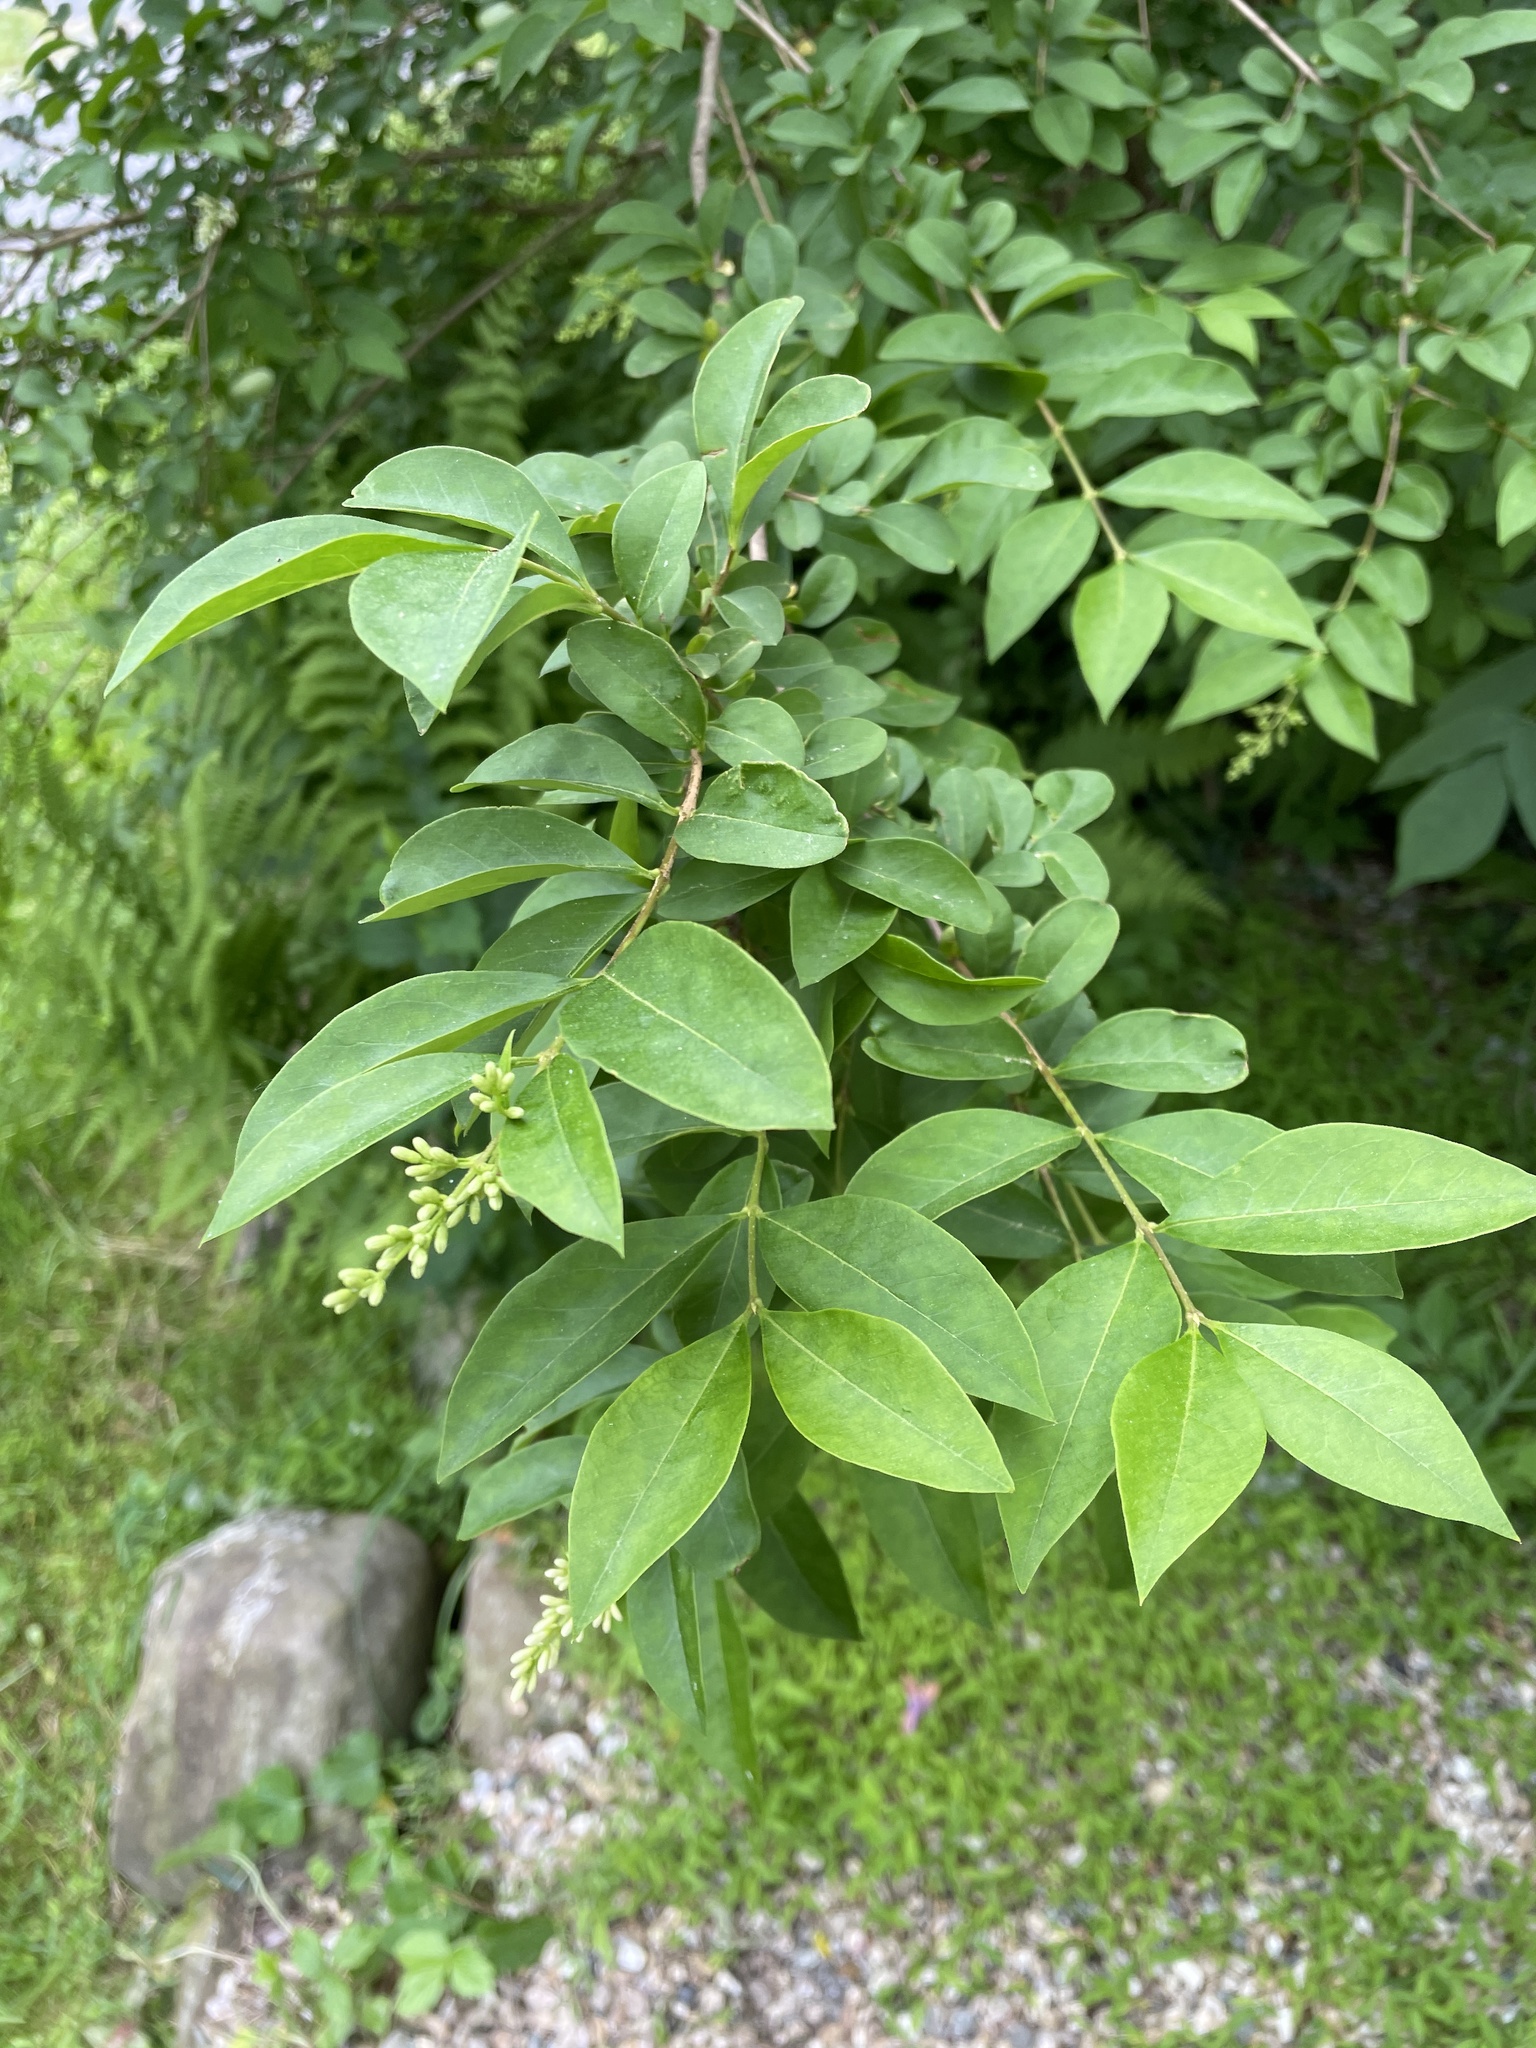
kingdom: Plantae
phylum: Tracheophyta
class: Magnoliopsida
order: Lamiales
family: Oleaceae
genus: Ligustrum
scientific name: Ligustrum ovalifolium
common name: California privet
